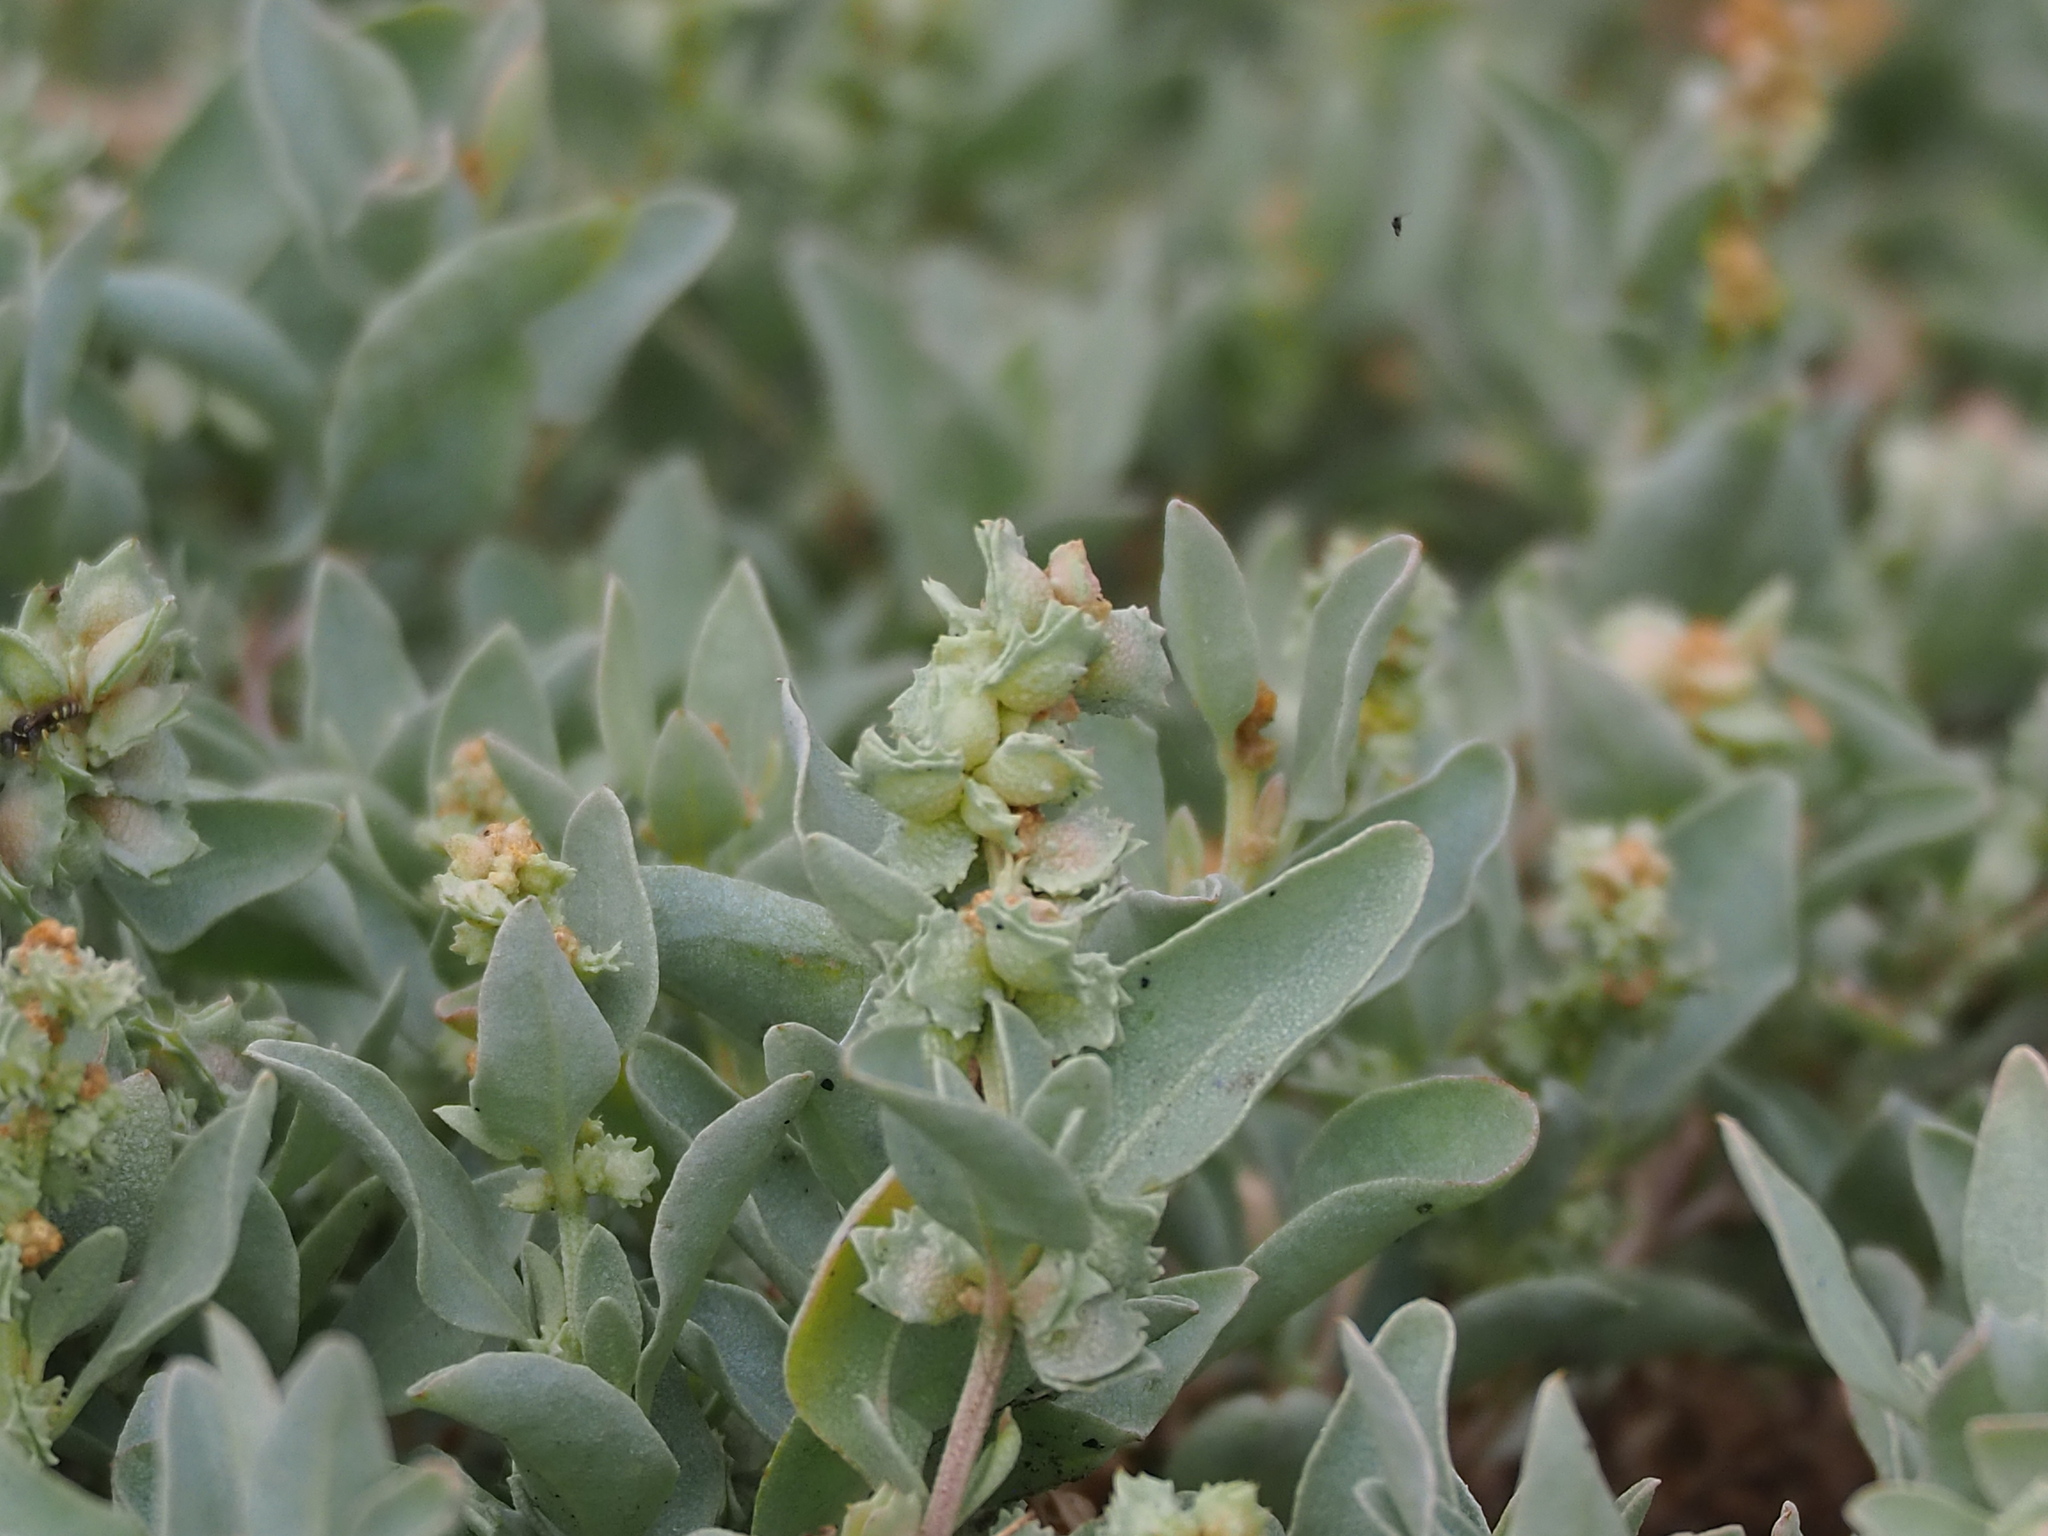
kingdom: Plantae
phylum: Tracheophyta
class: Magnoliopsida
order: Caryophyllales
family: Amaranthaceae
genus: Atriplex
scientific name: Atriplex maximowicziana
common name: Maximowicz's saltbush
